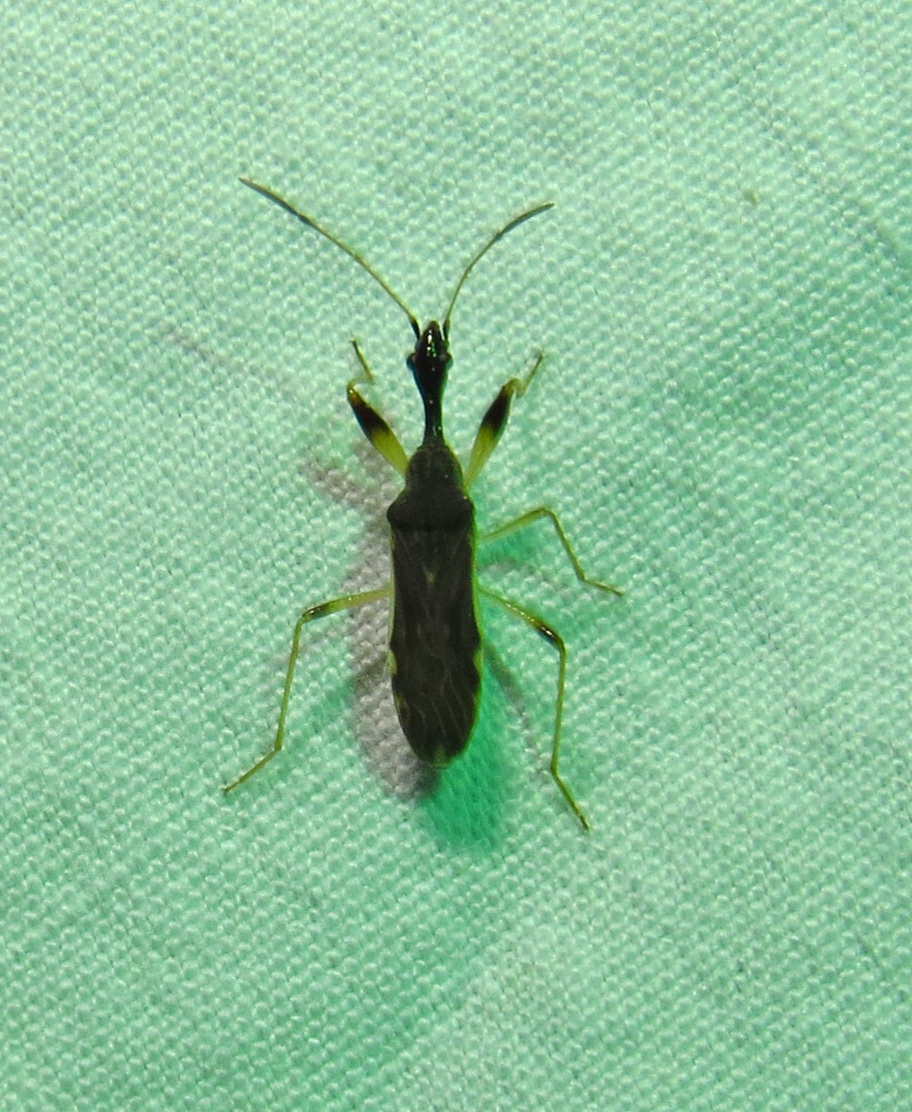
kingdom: Animalia
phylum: Arthropoda
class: Insecta
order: Hemiptera
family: Rhyparochromidae
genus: Myodocha
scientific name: Myodocha serripes
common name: Long-necked seed bug
